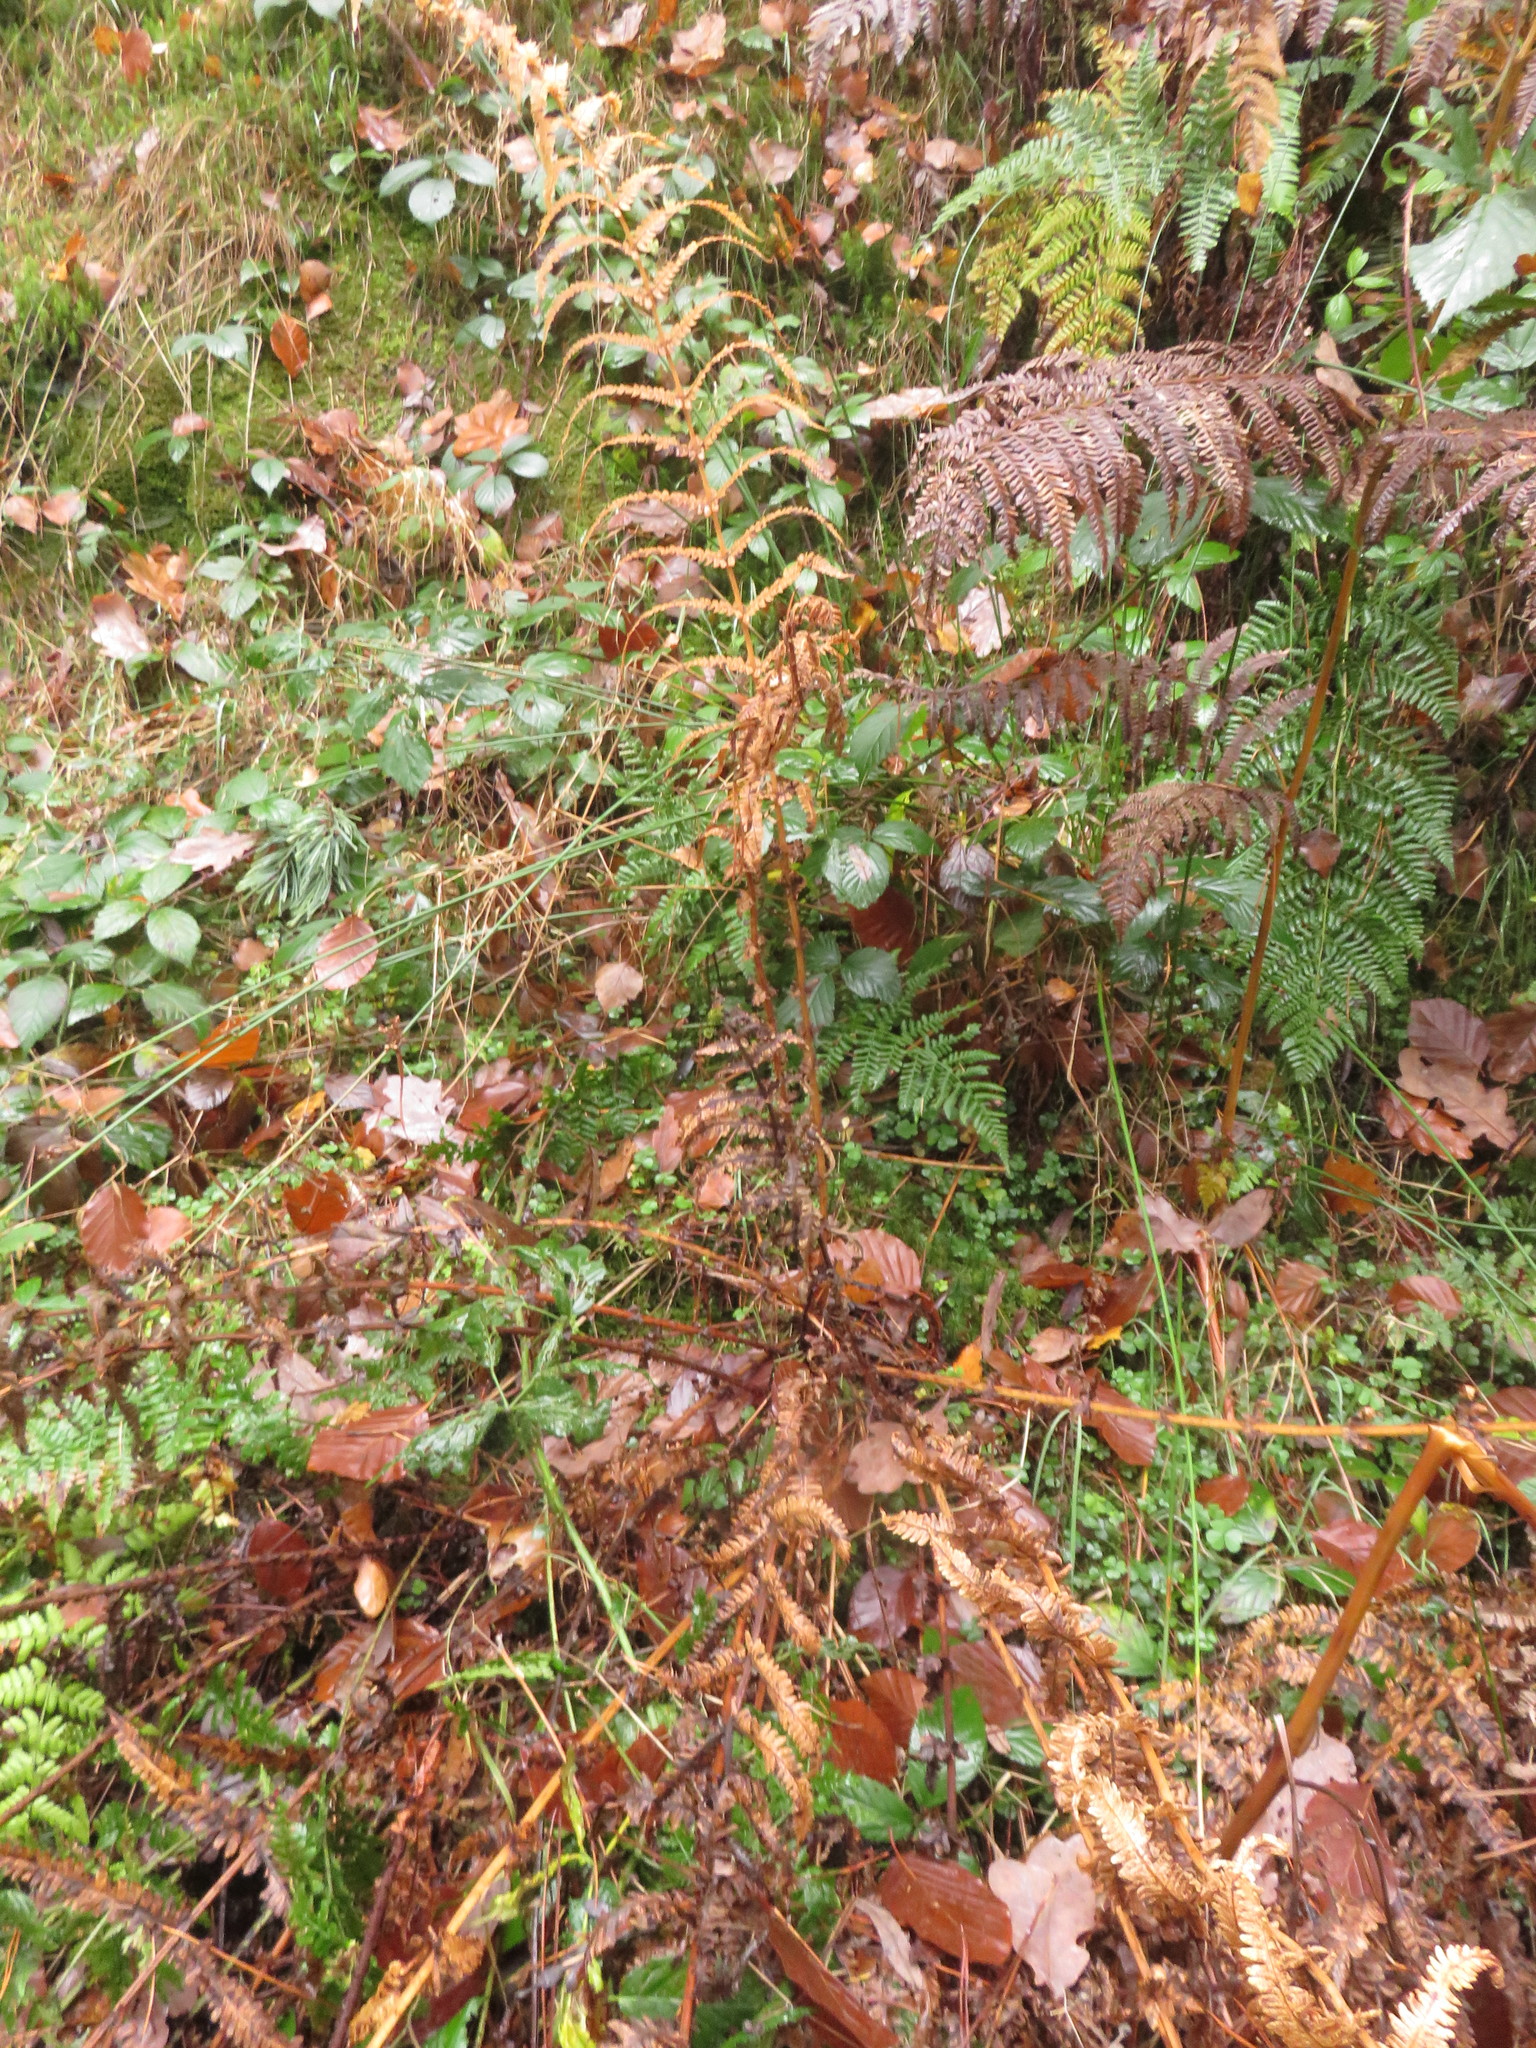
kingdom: Plantae
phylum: Tracheophyta
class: Polypodiopsida
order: Polypodiales
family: Thelypteridaceae
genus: Oreopteris
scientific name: Oreopteris limbosperma
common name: Lemon-scented fern
